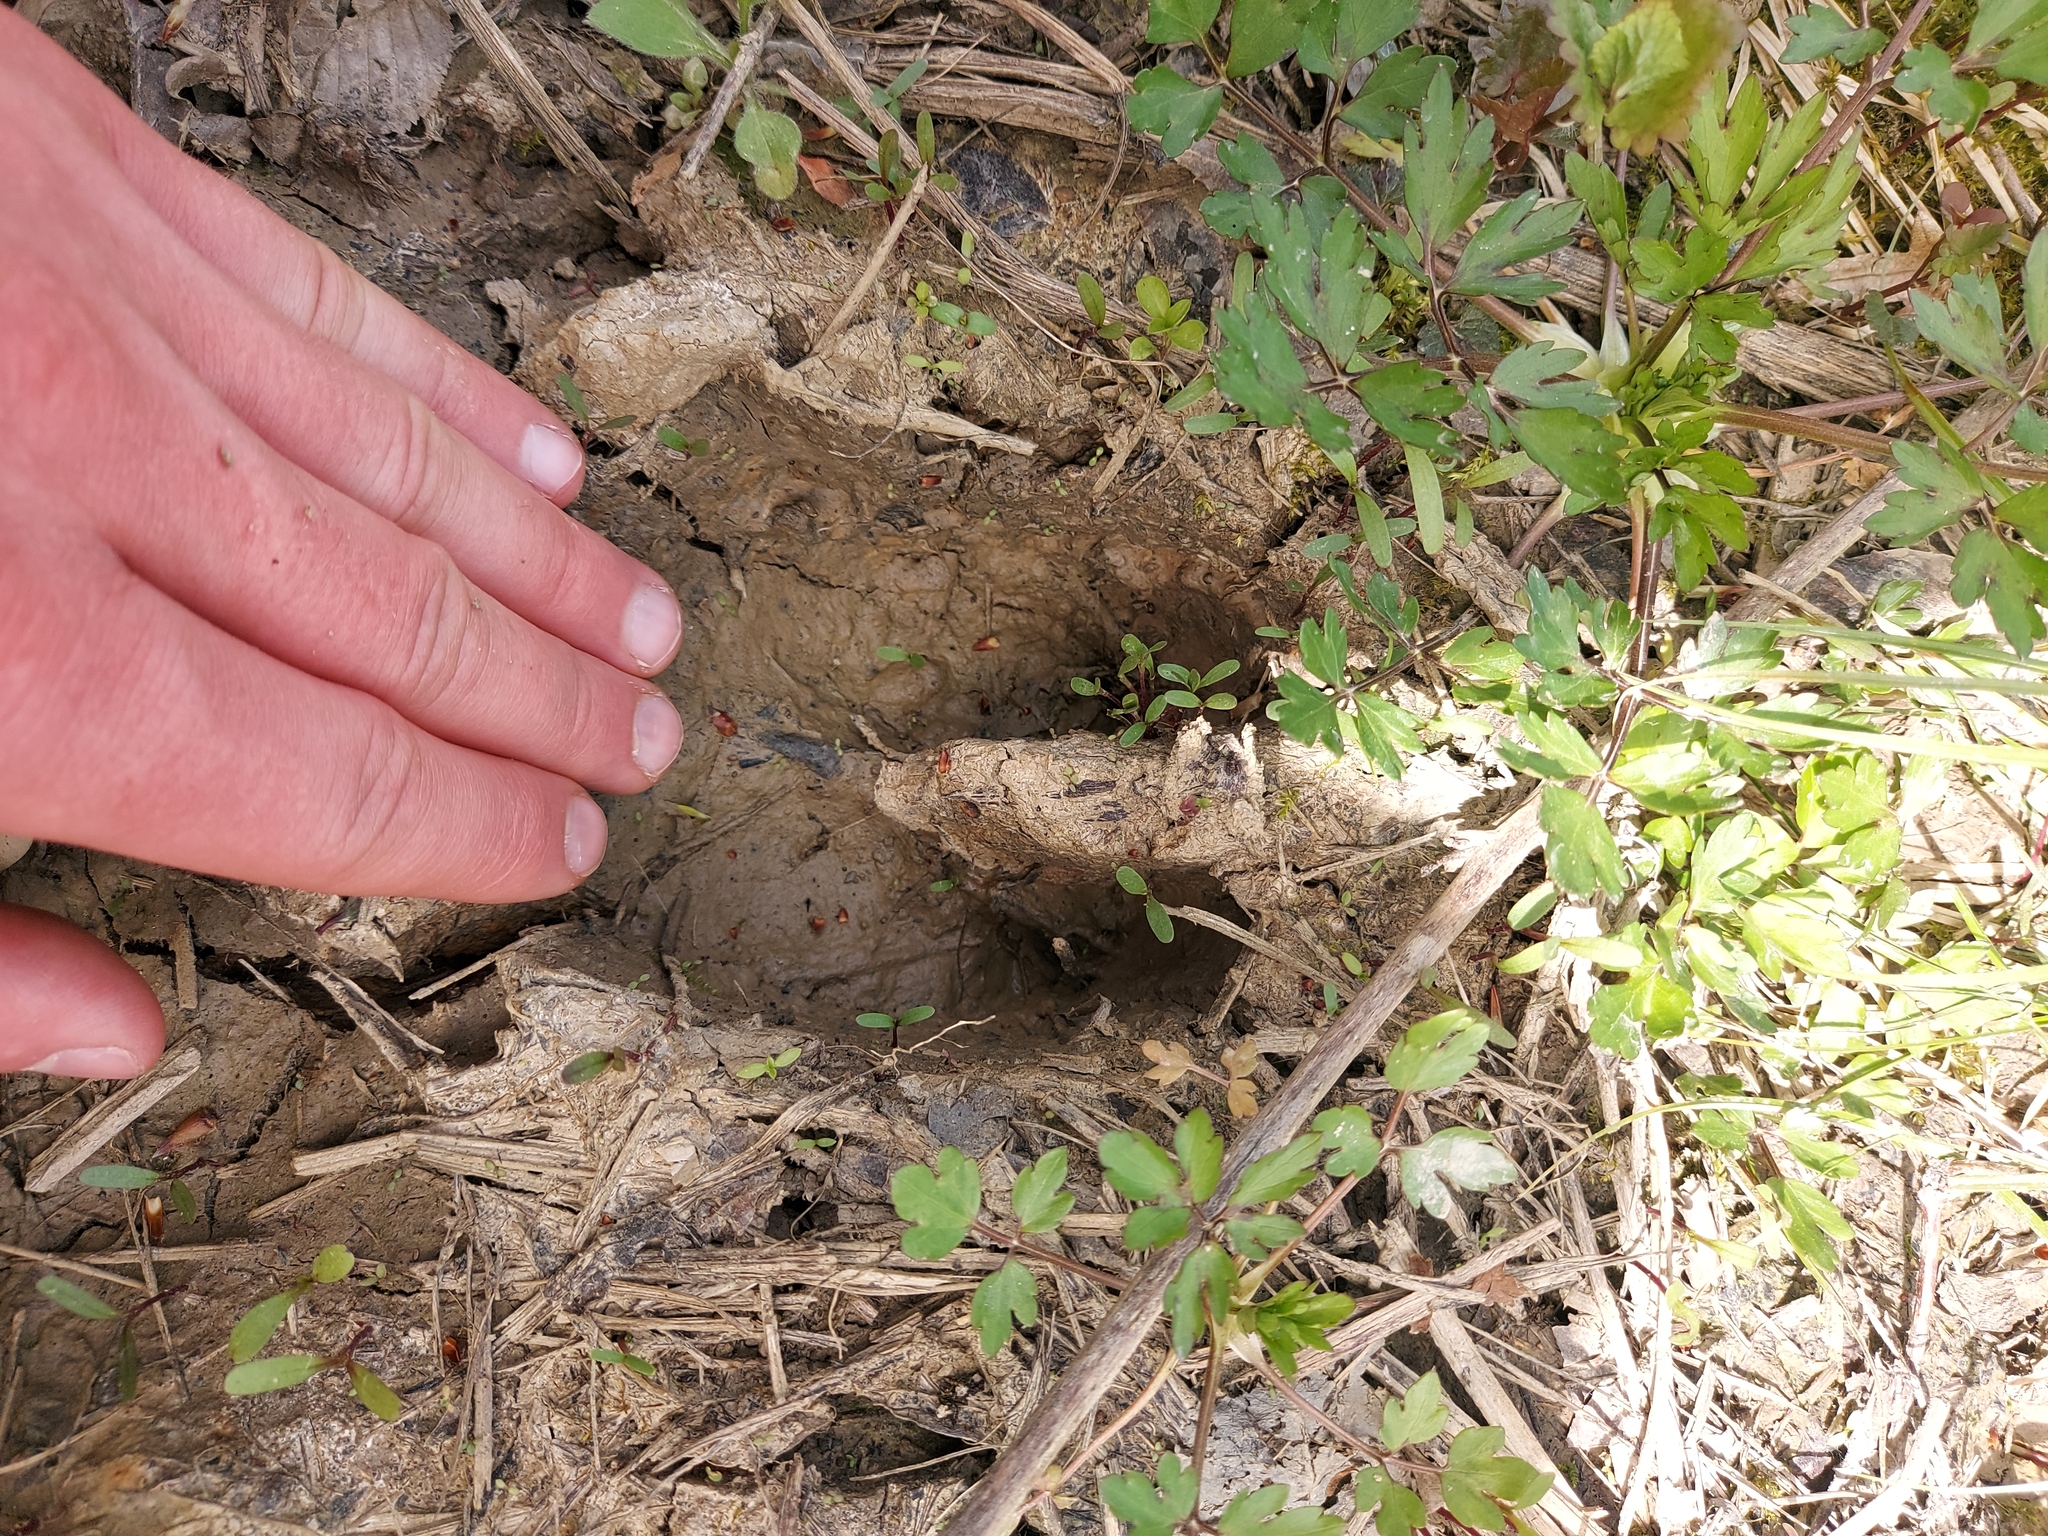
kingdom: Animalia
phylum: Chordata
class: Mammalia
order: Artiodactyla
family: Suidae
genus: Sus
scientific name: Sus scrofa
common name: Wild boar
